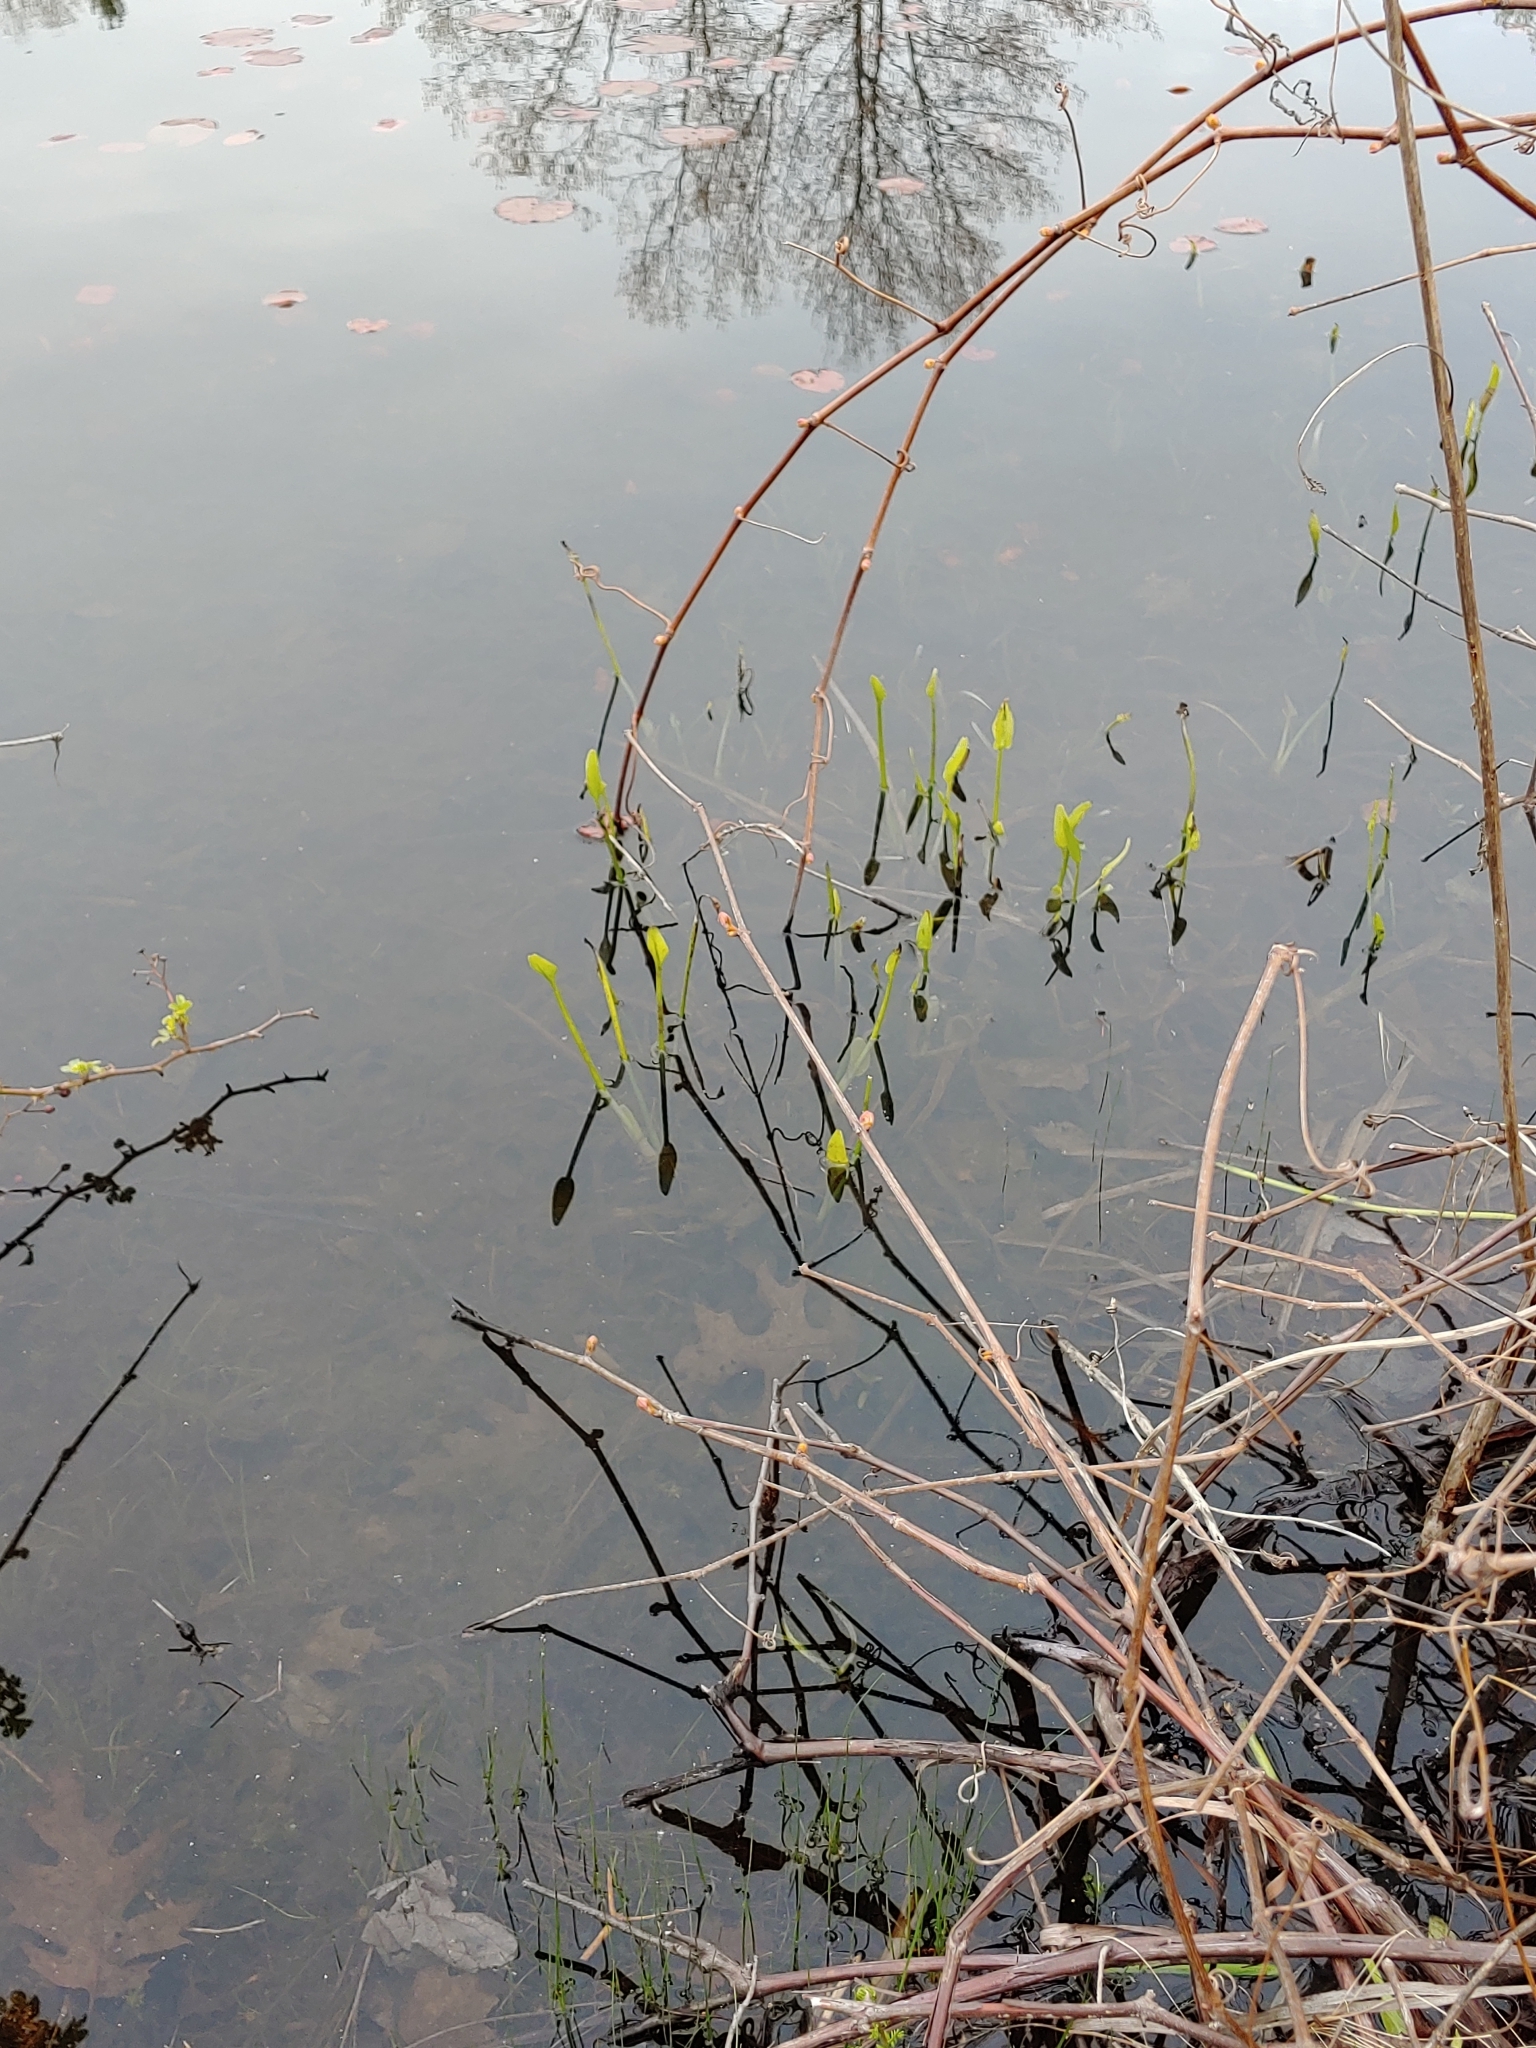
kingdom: Plantae
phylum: Tracheophyta
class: Liliopsida
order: Commelinales
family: Pontederiaceae
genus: Pontederia
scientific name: Pontederia cordata
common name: Pickerelweed
